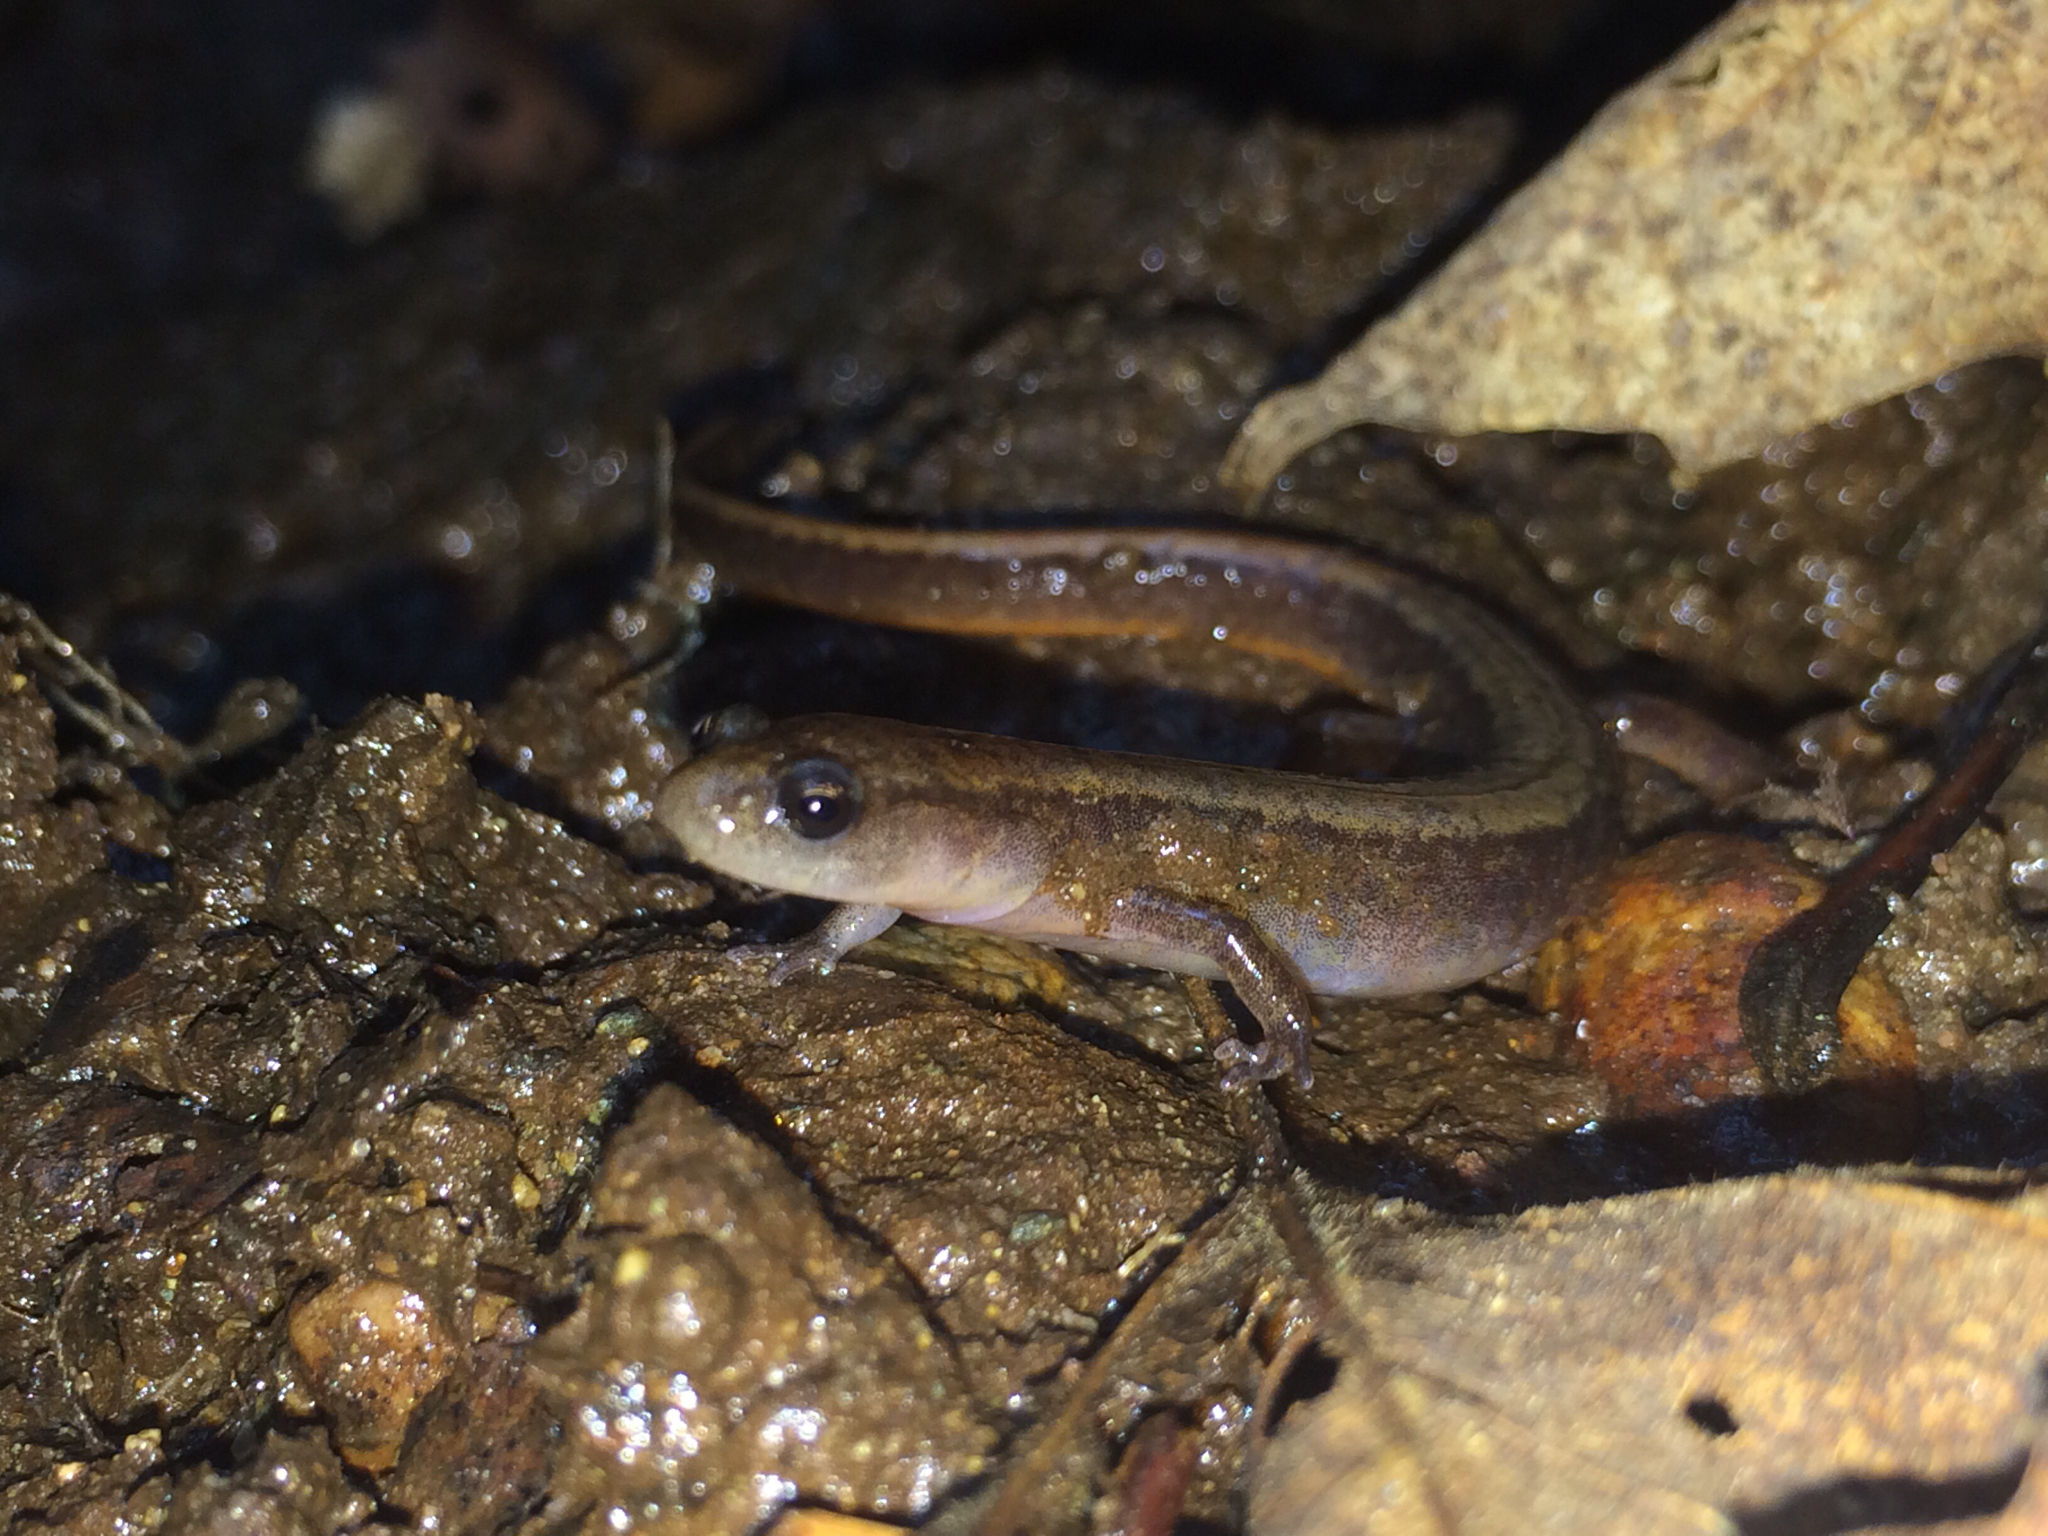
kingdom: Animalia
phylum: Chordata
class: Amphibia
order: Caudata
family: Plethodontidae
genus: Eurycea
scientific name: Eurycea bislineata
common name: Northern two-lined salamander
